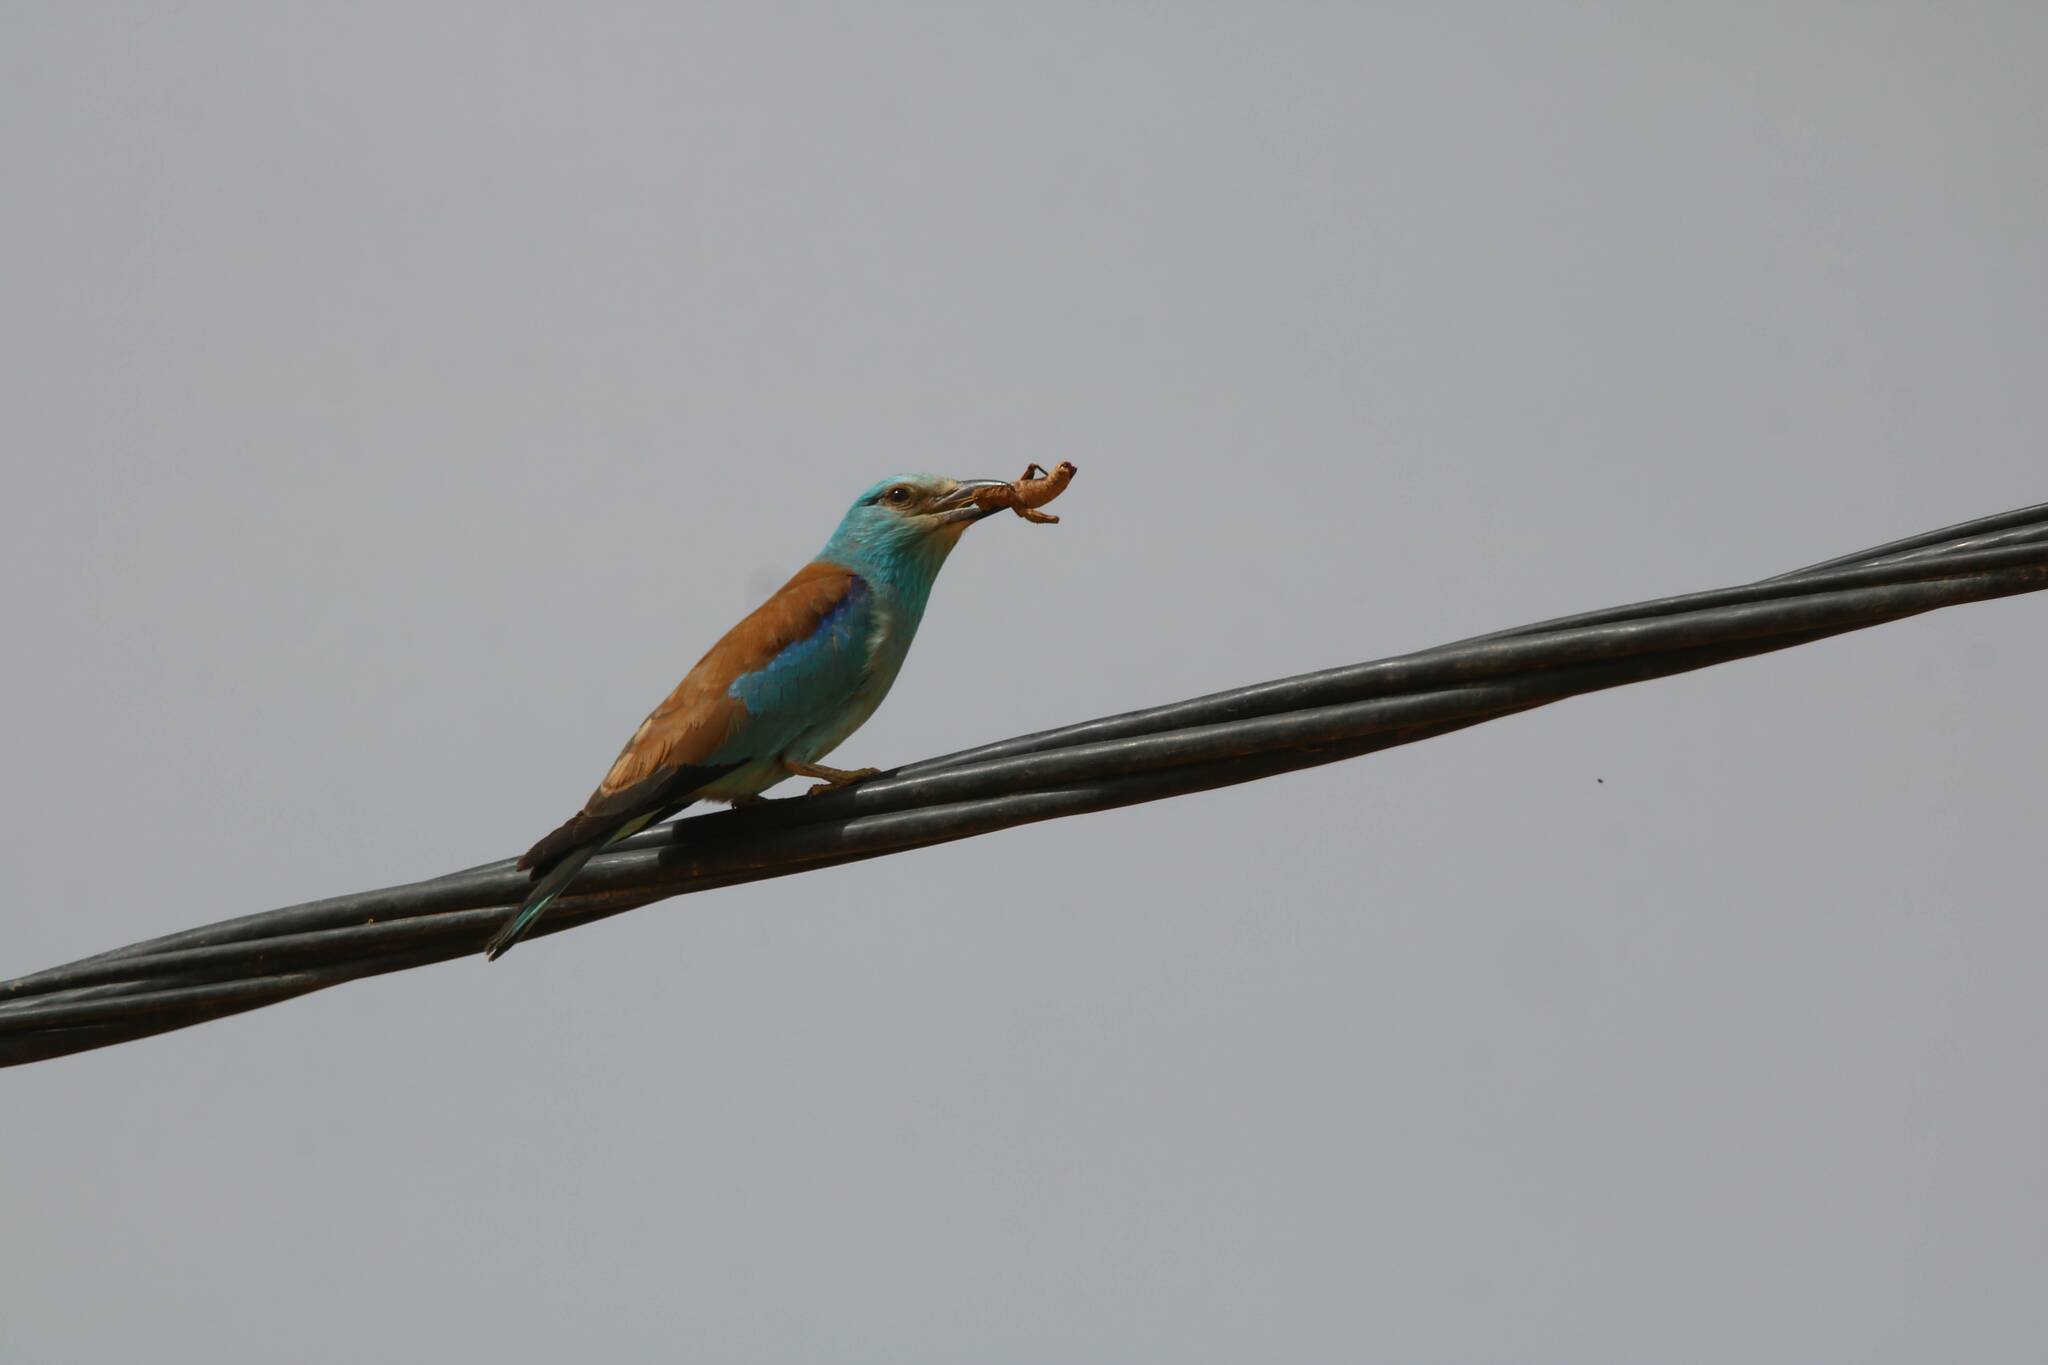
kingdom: Animalia
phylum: Chordata
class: Aves
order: Coraciiformes
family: Coraciidae
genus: Coracias
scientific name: Coracias garrulus
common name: European roller
